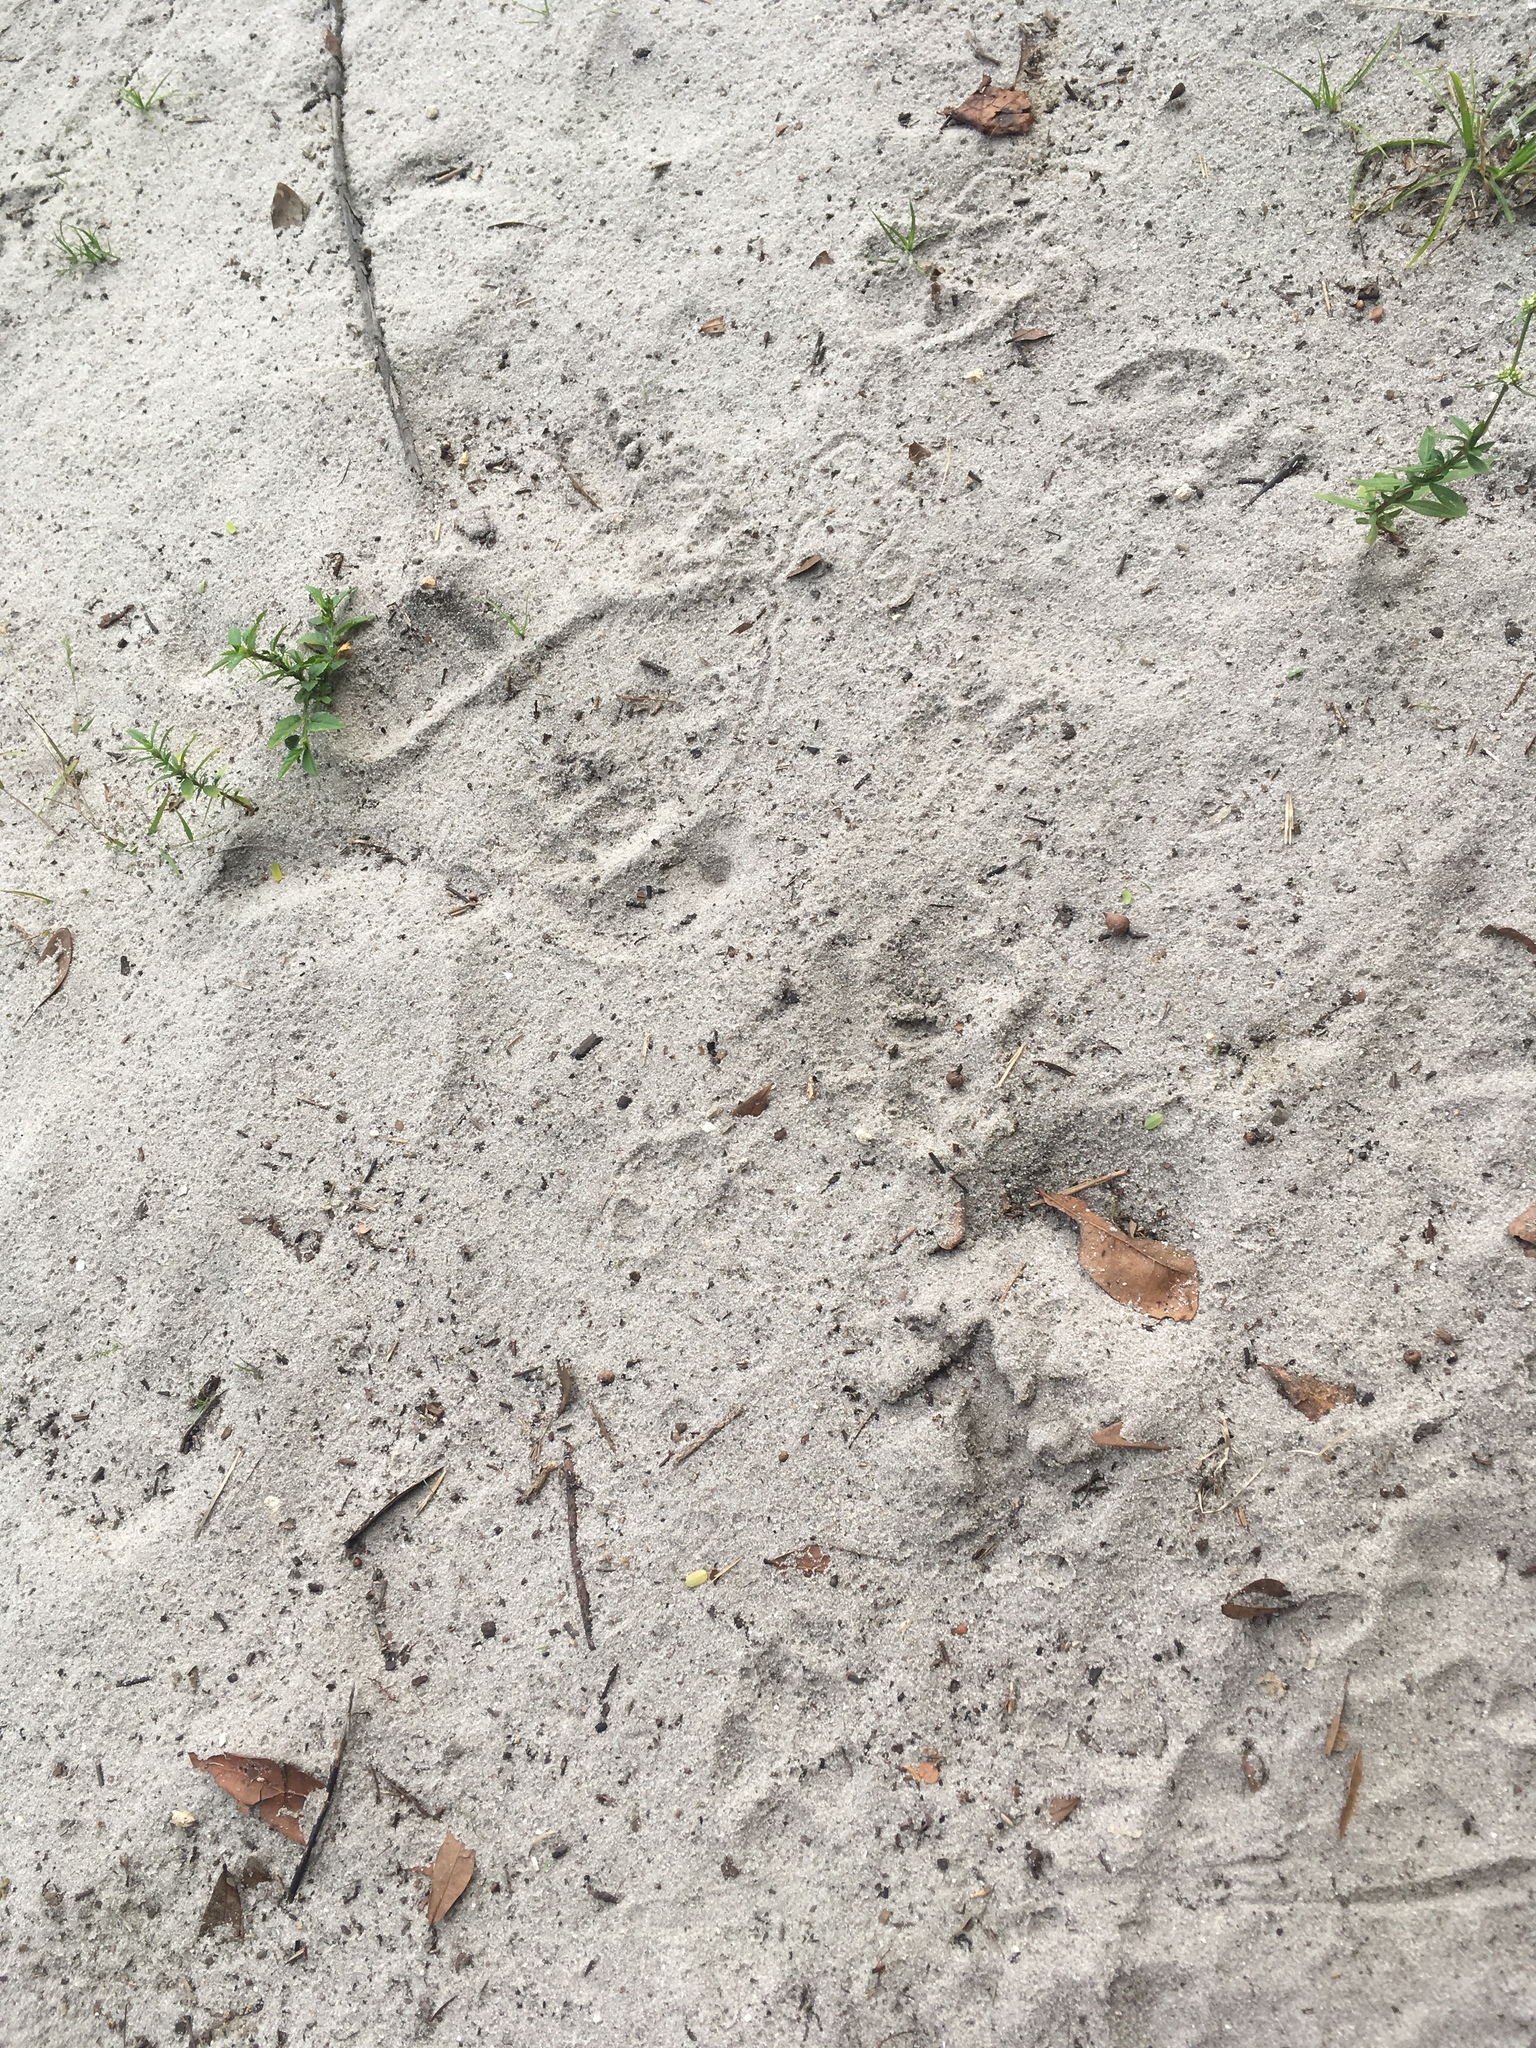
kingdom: Animalia
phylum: Chordata
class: Mammalia
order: Carnivora
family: Canidae
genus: Canis
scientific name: Canis latrans
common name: Coyote
